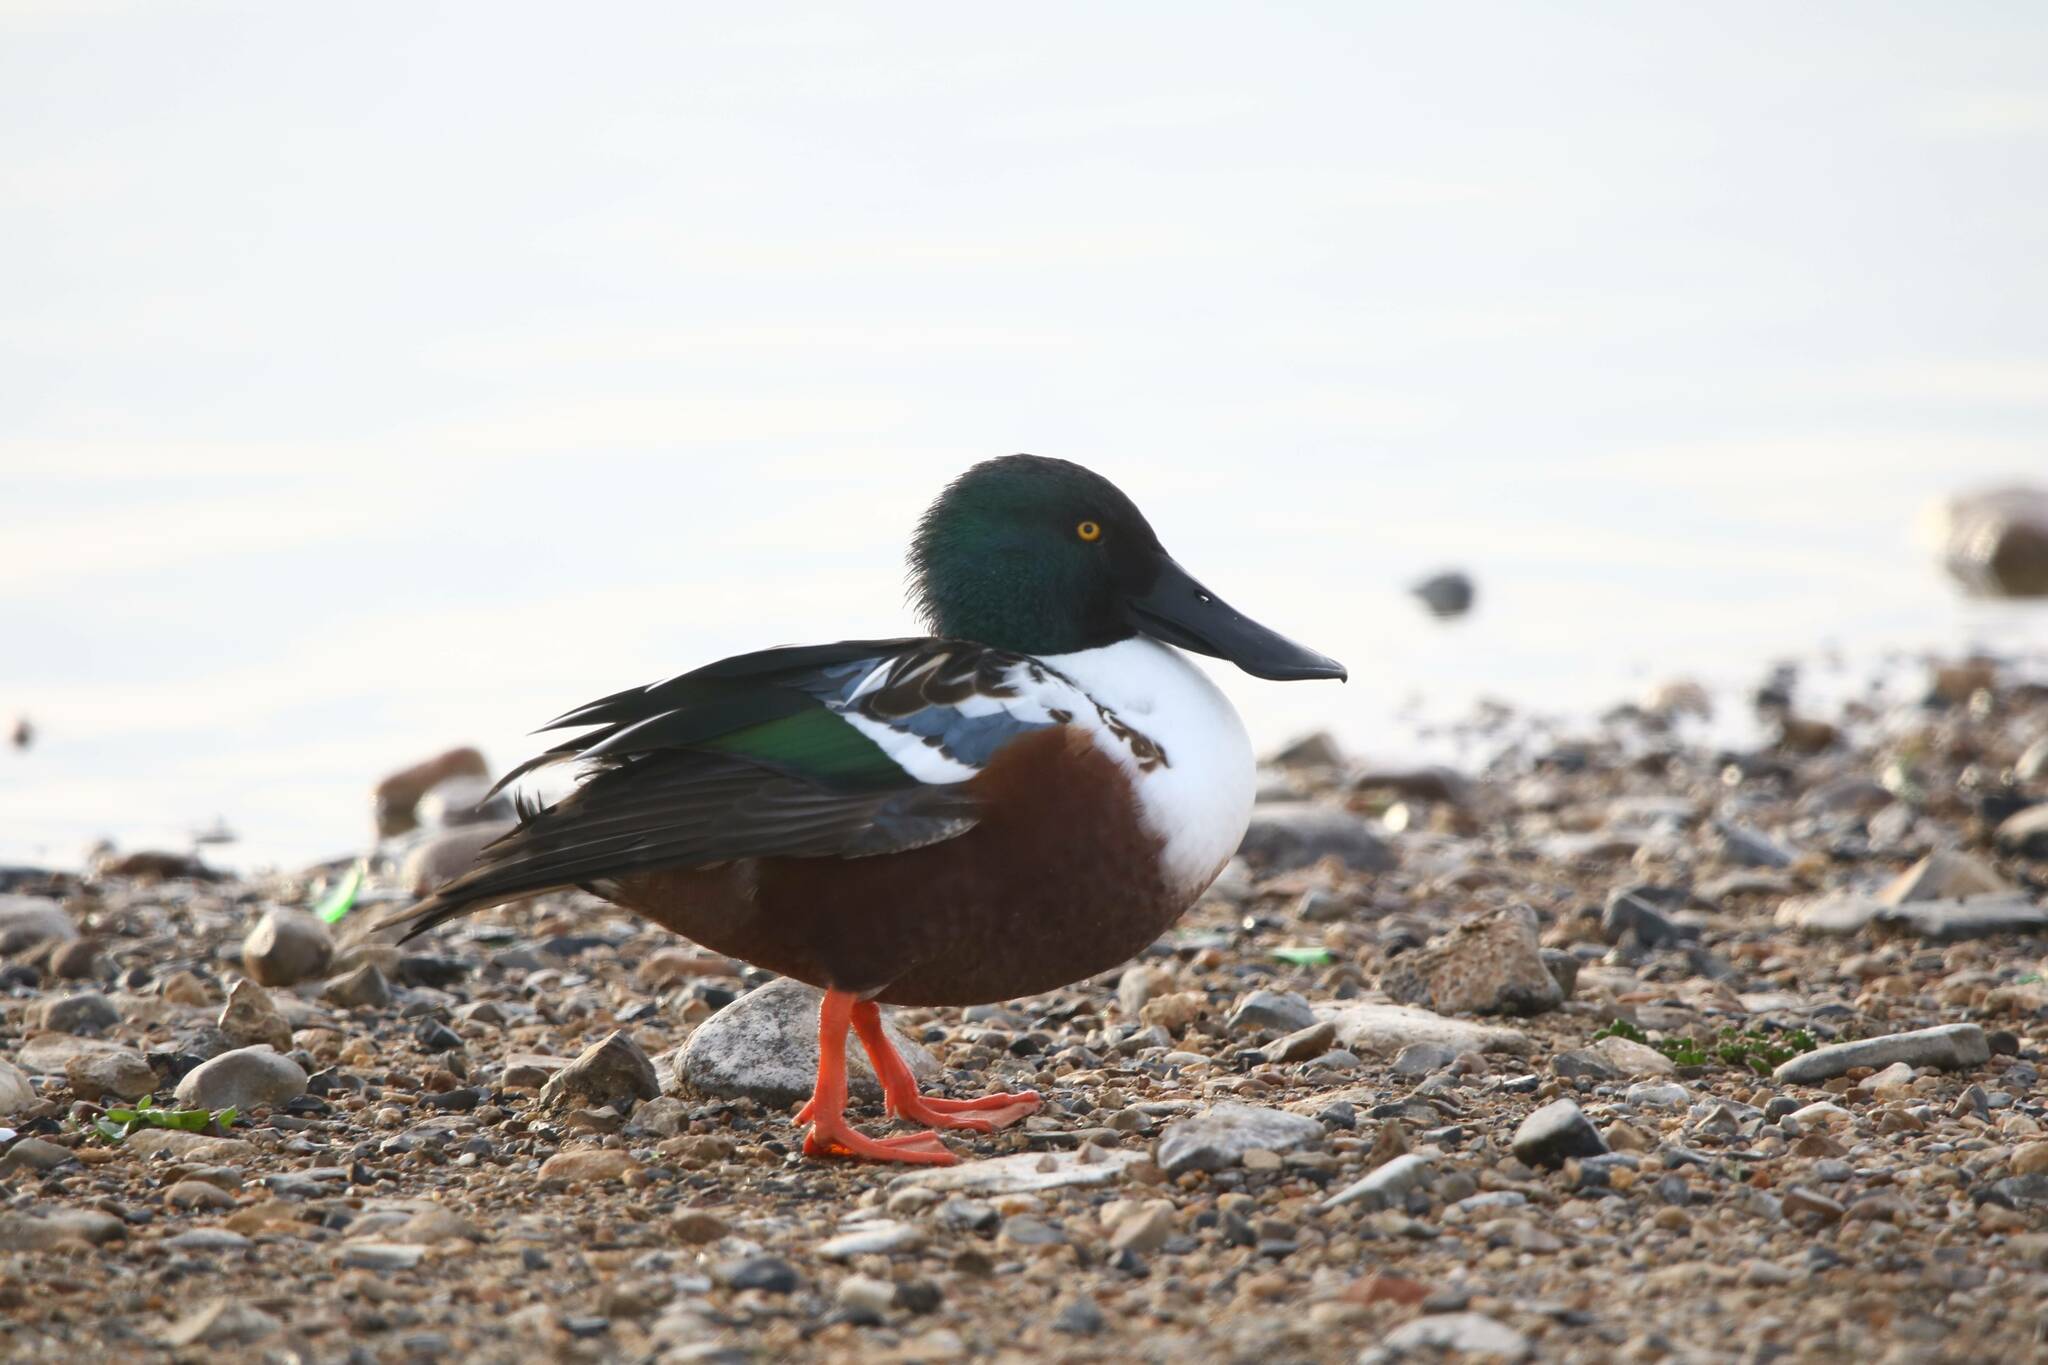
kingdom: Animalia
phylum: Chordata
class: Aves
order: Anseriformes
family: Anatidae
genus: Spatula
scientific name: Spatula clypeata
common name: Northern shoveler
